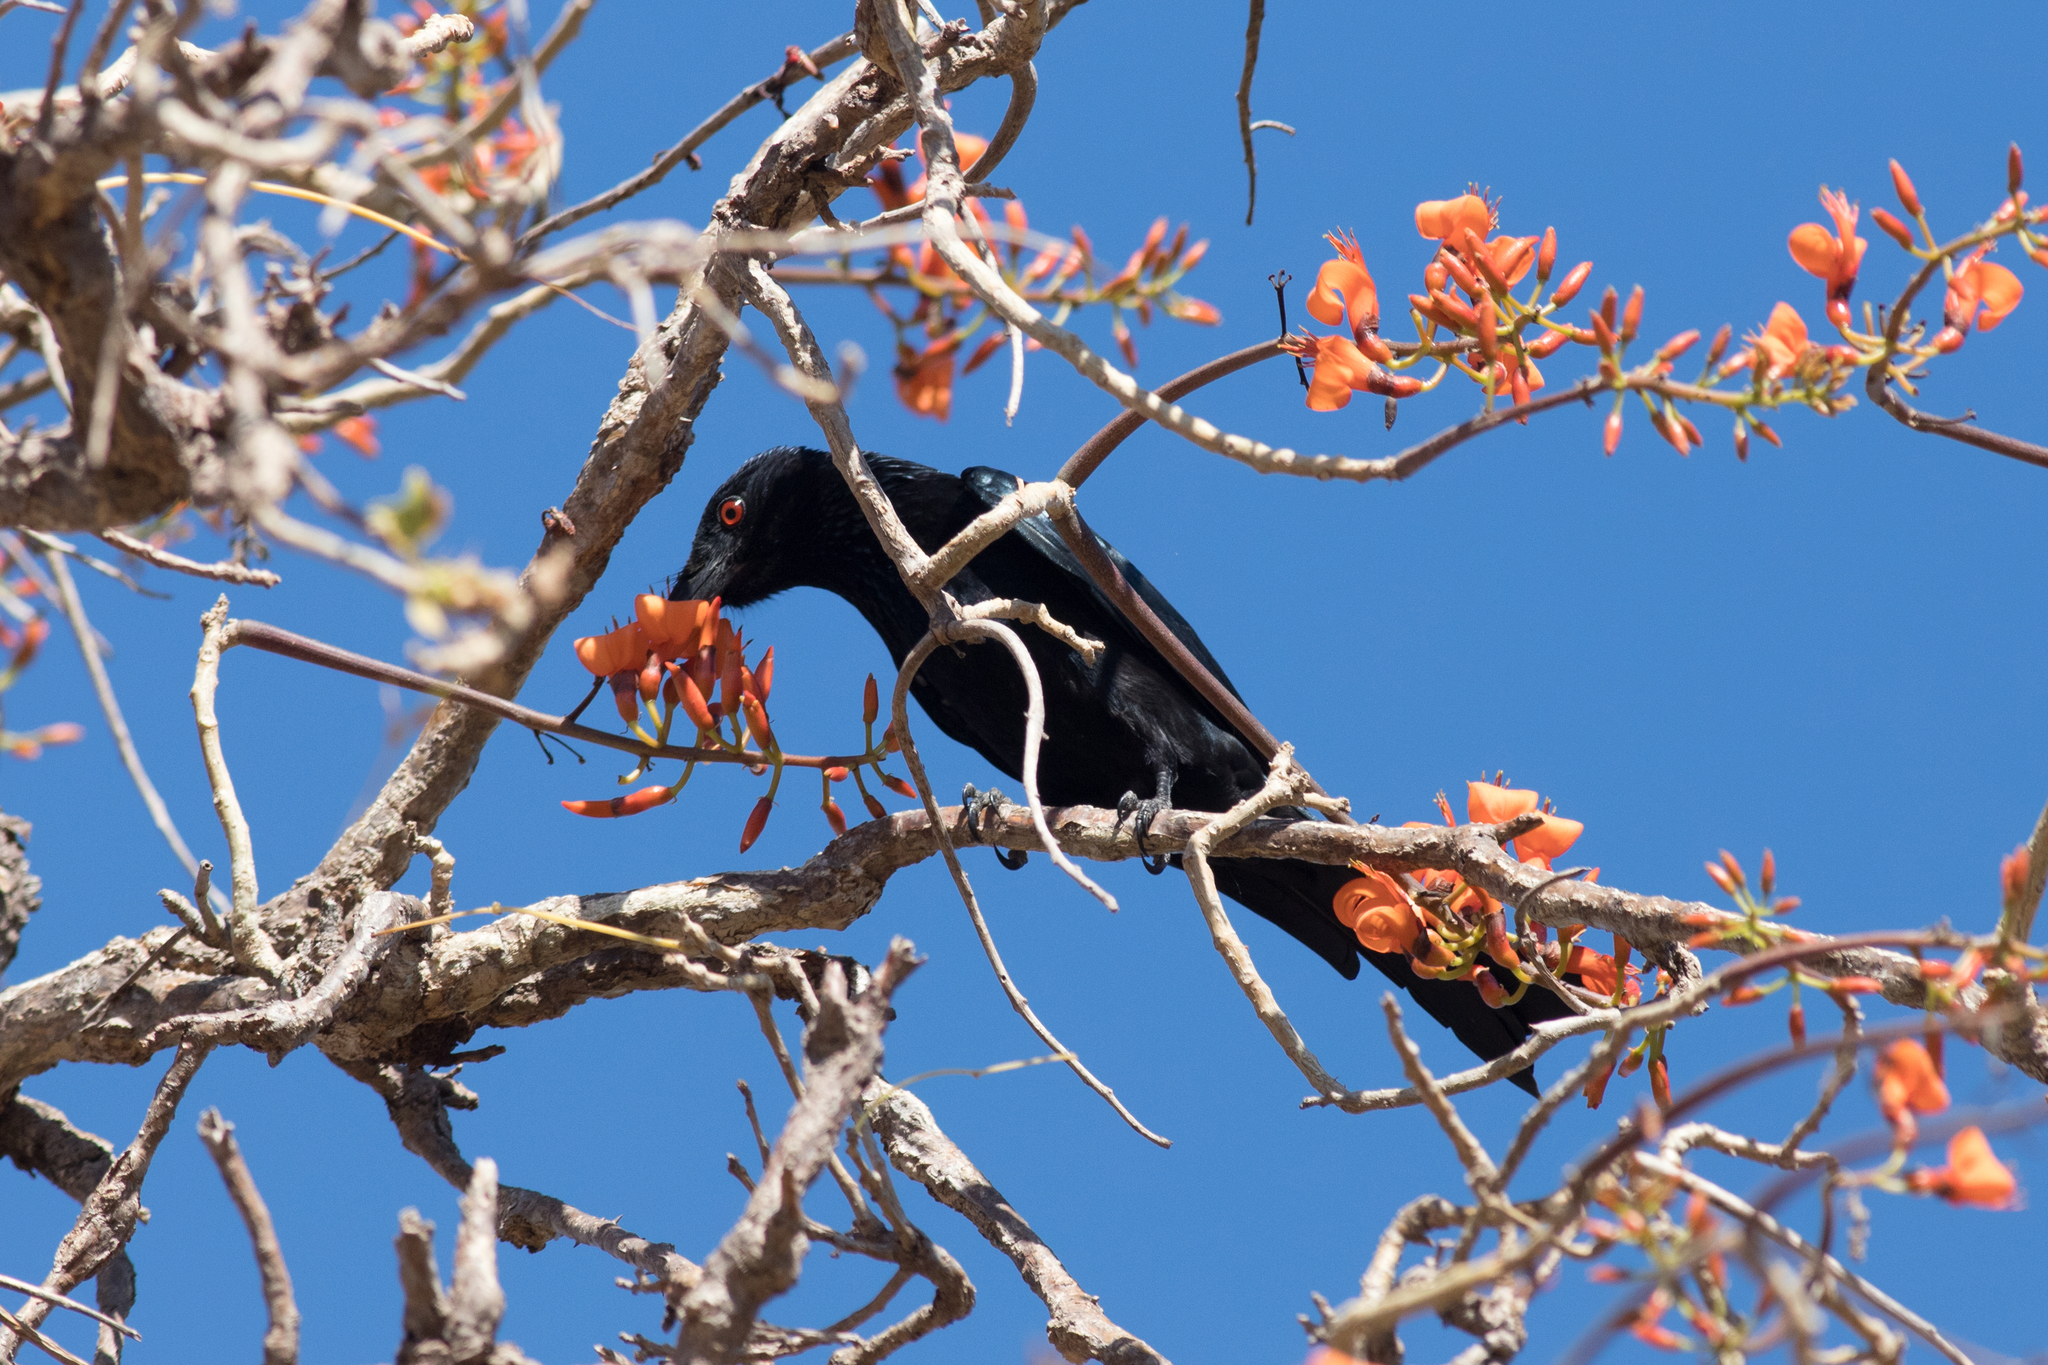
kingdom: Animalia
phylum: Chordata
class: Aves
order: Passeriformes
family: Dicruridae
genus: Dicrurus
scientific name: Dicrurus bracteatus
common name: Spangled drongo
